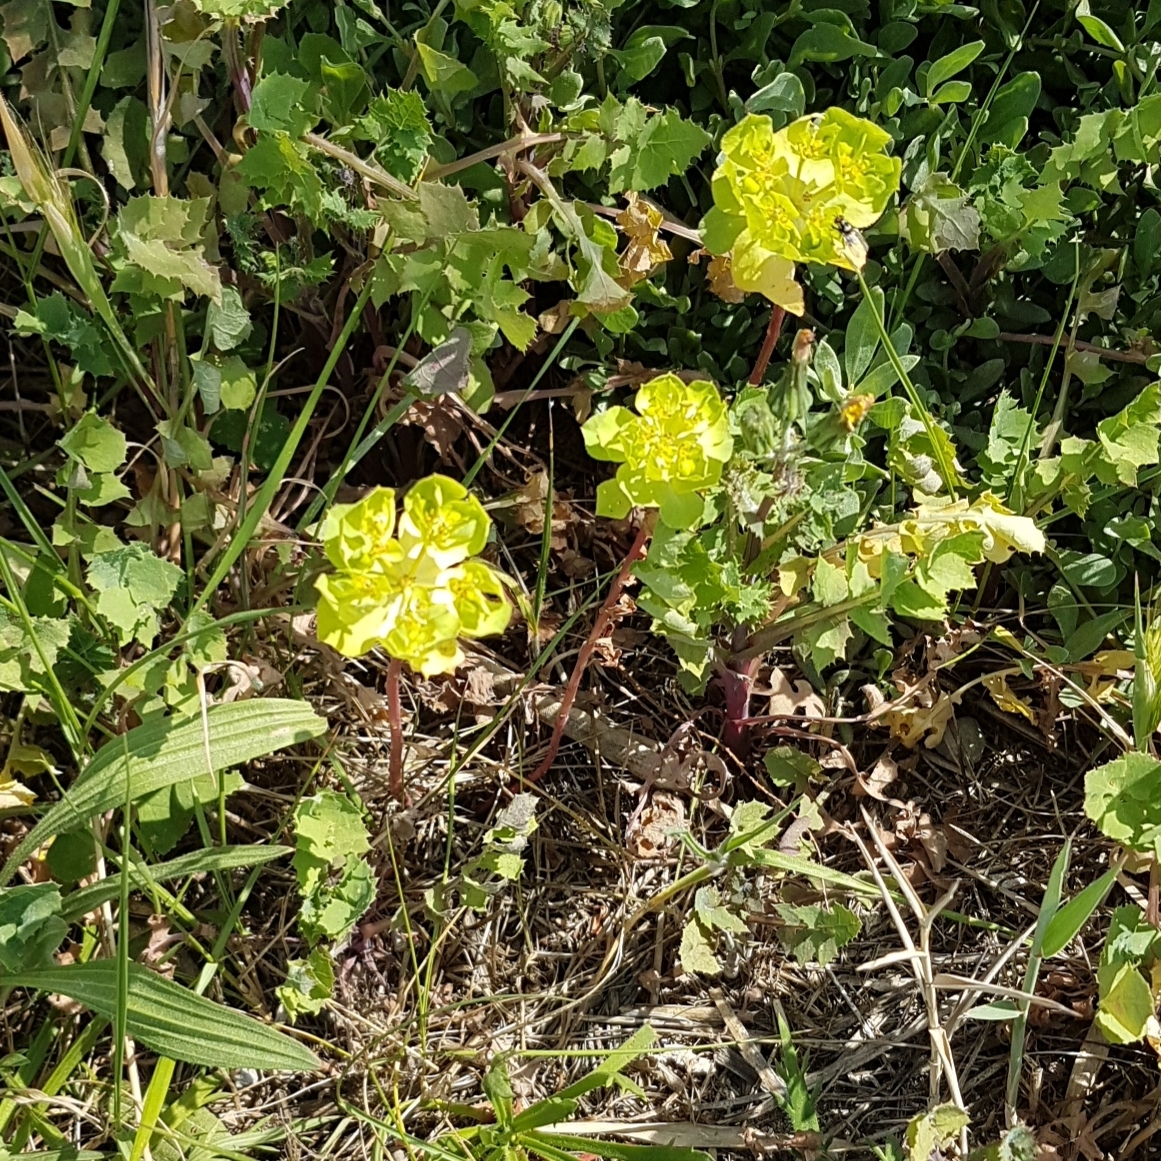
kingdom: Plantae
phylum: Tracheophyta
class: Magnoliopsida
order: Malpighiales
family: Euphorbiaceae
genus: Euphorbia
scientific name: Euphorbia helioscopia
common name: Sun spurge
